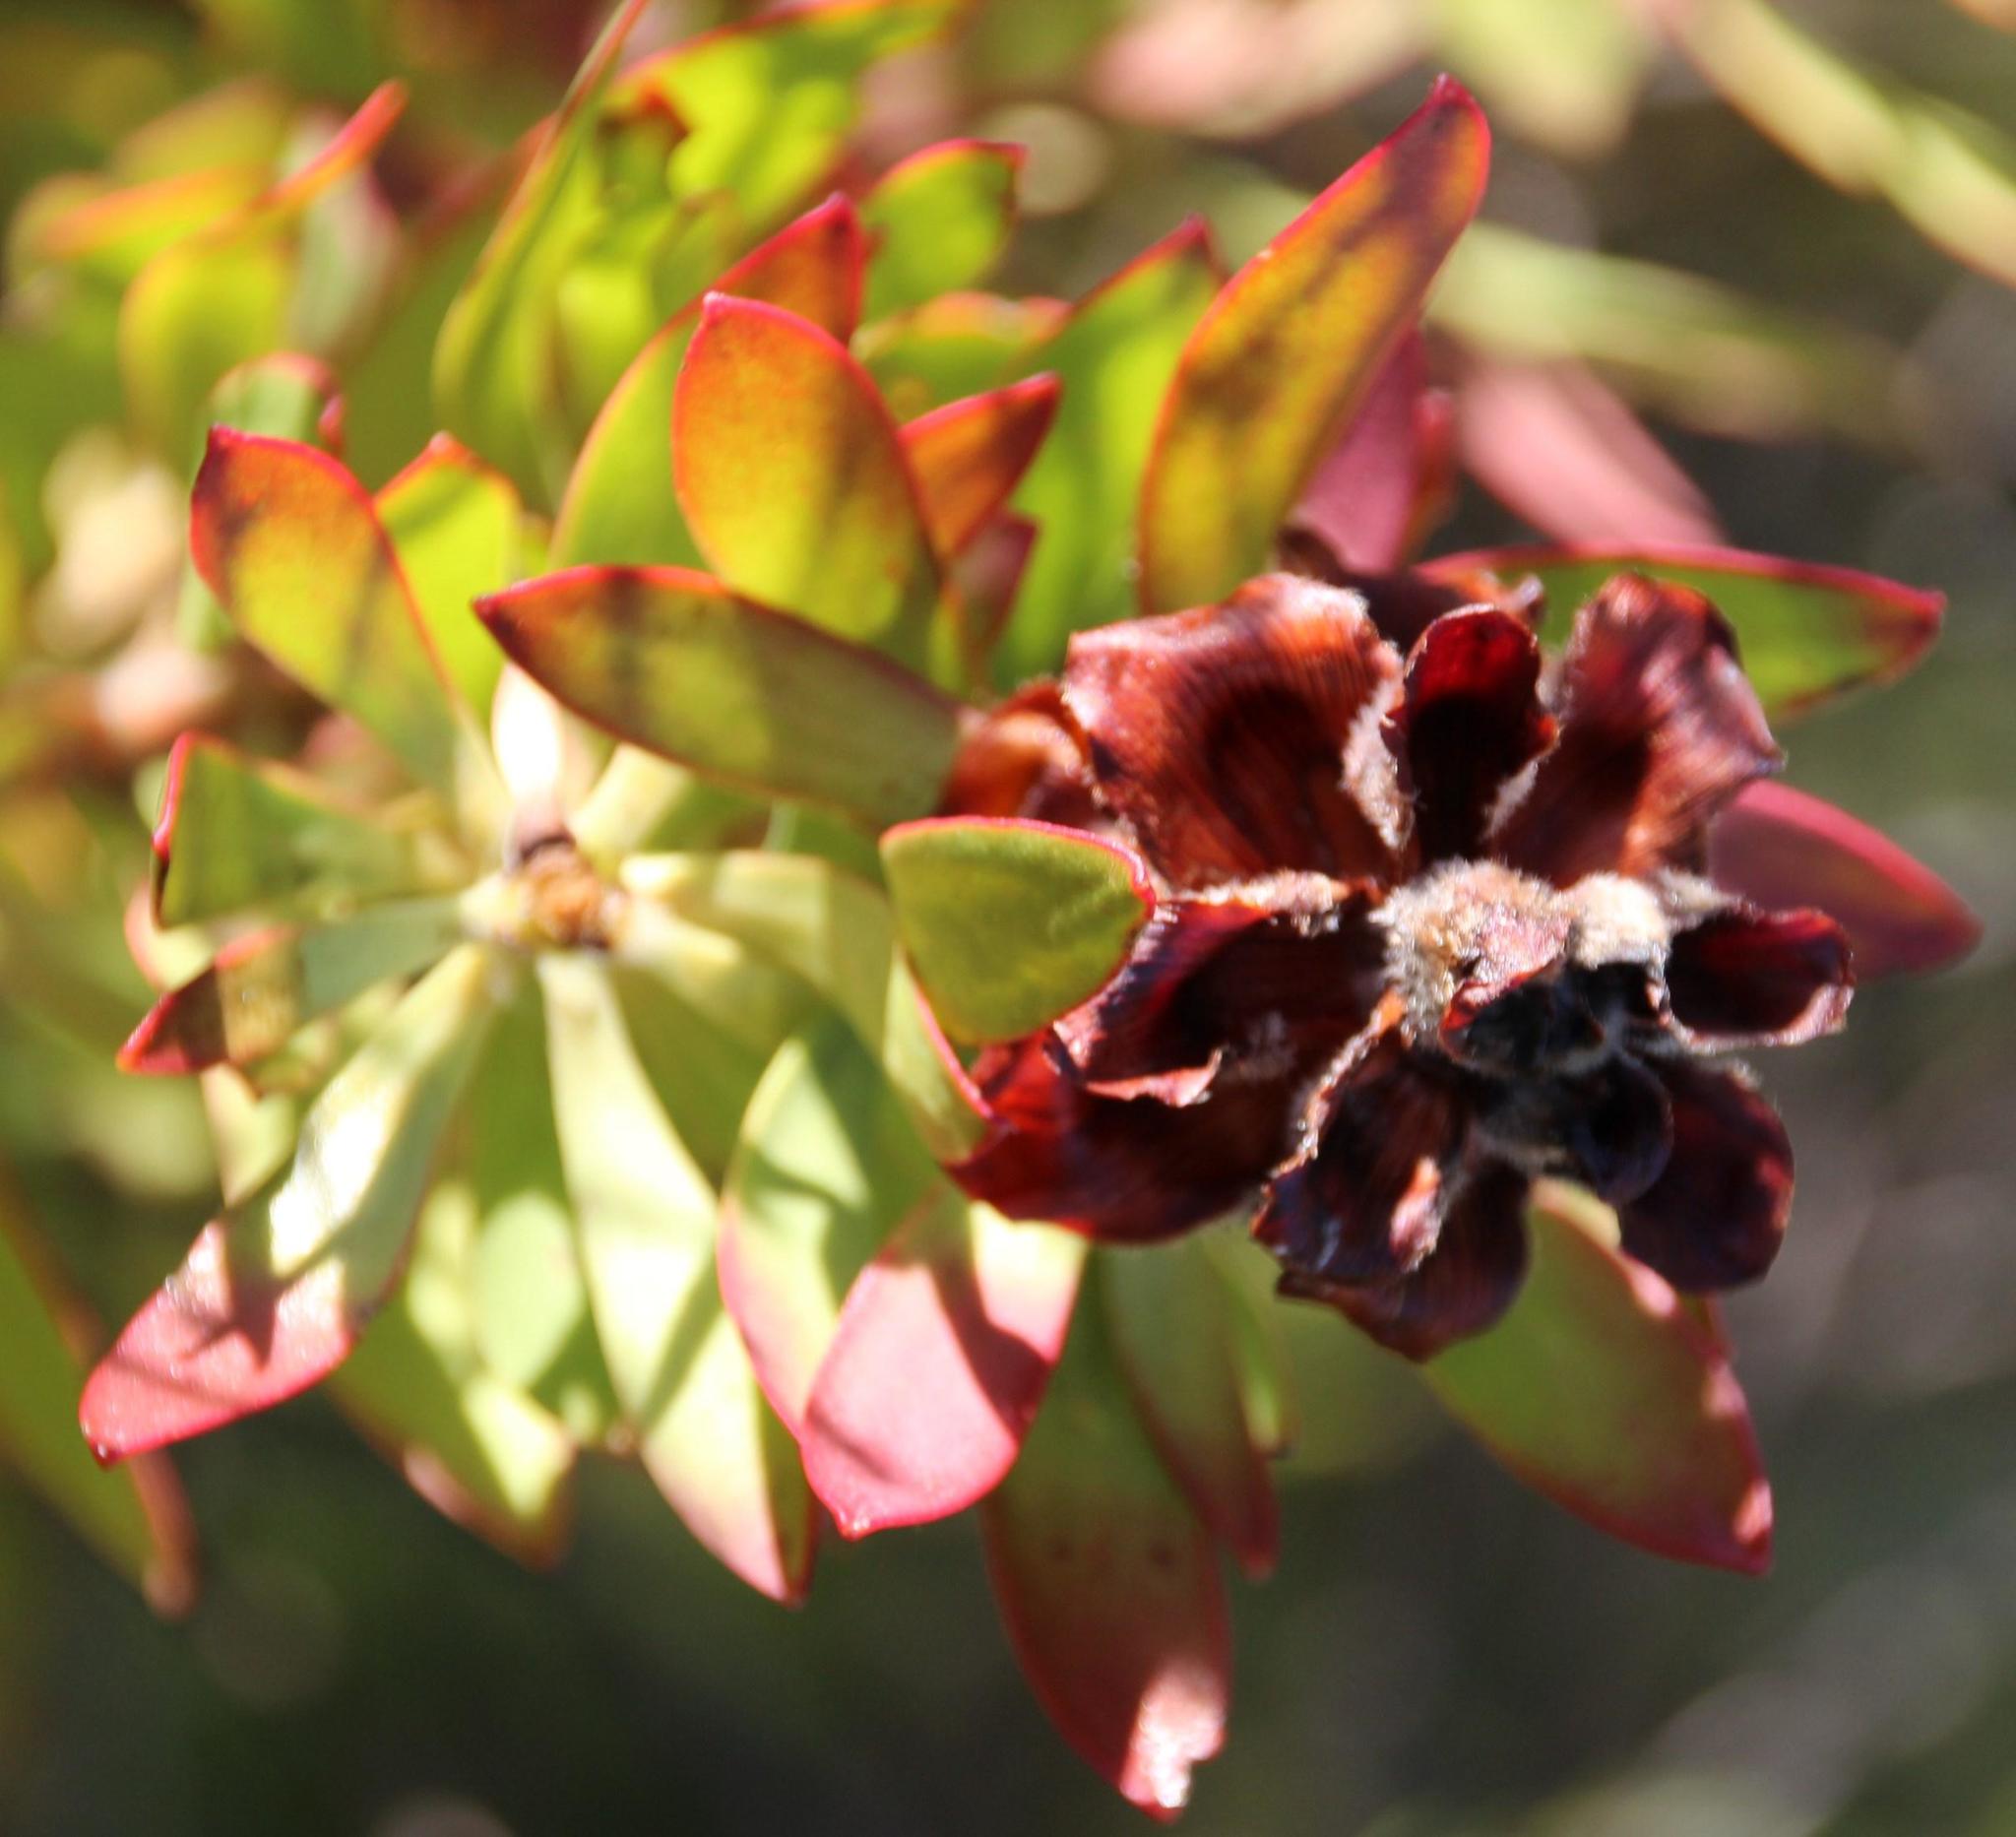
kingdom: Plantae
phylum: Tracheophyta
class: Magnoliopsida
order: Proteales
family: Proteaceae
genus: Leucadendron
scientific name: Leucadendron glaberrimum
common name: Common oily conebush
